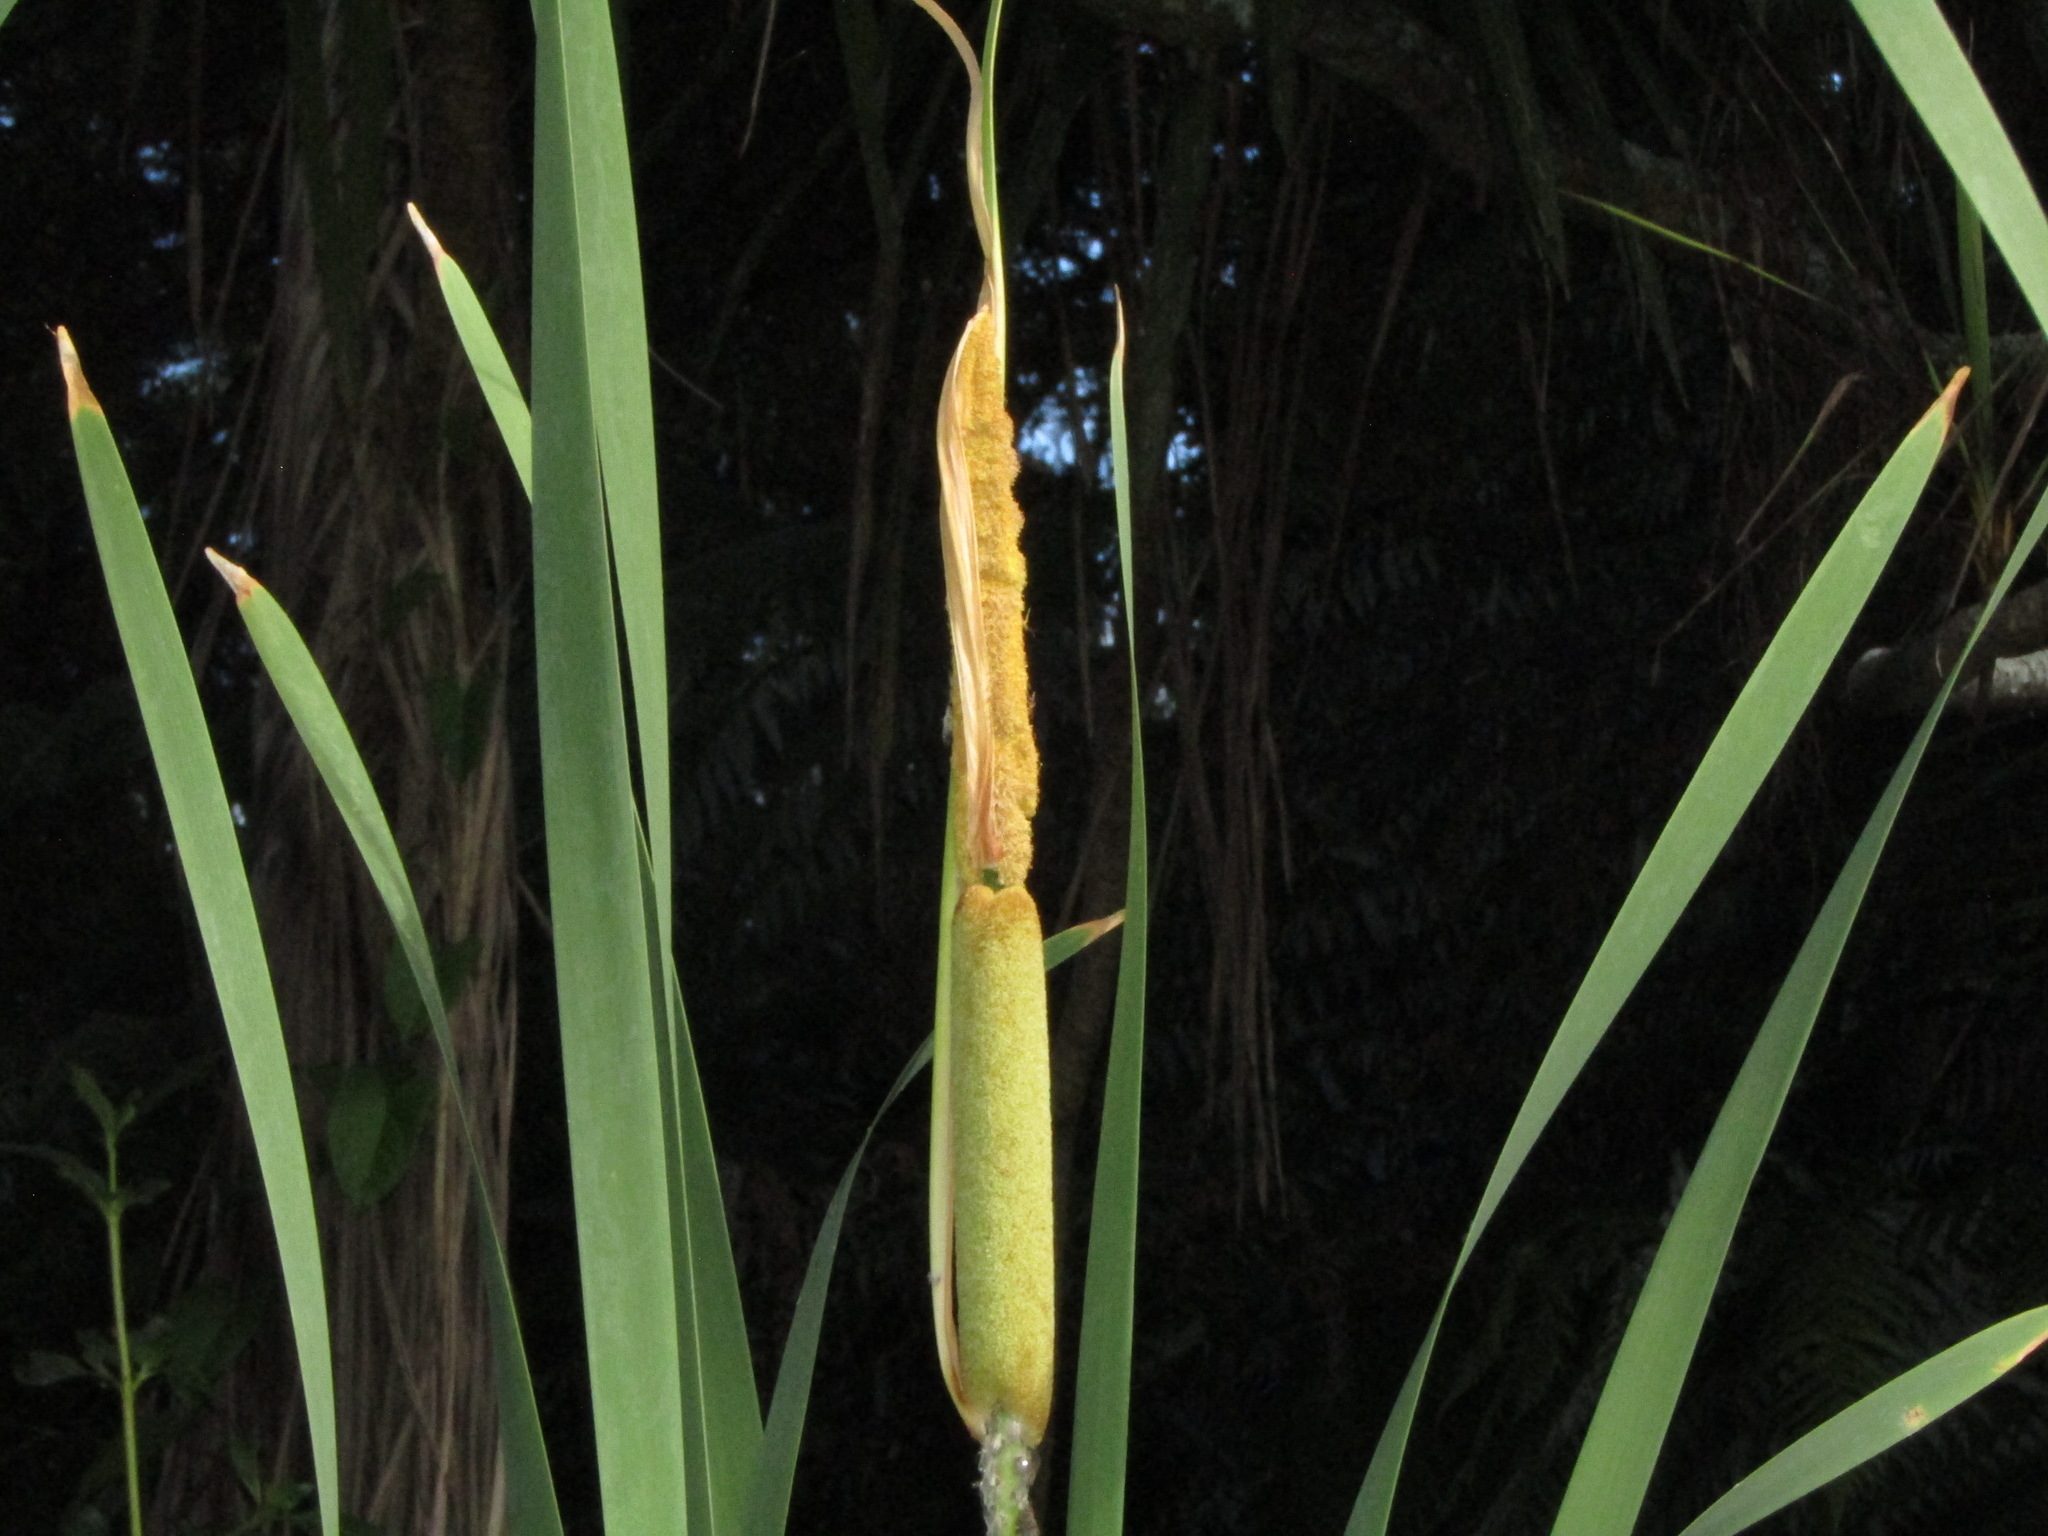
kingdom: Plantae
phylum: Tracheophyta
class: Liliopsida
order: Poales
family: Typhaceae
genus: Typha
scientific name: Typha orientalis
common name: Bullrush
